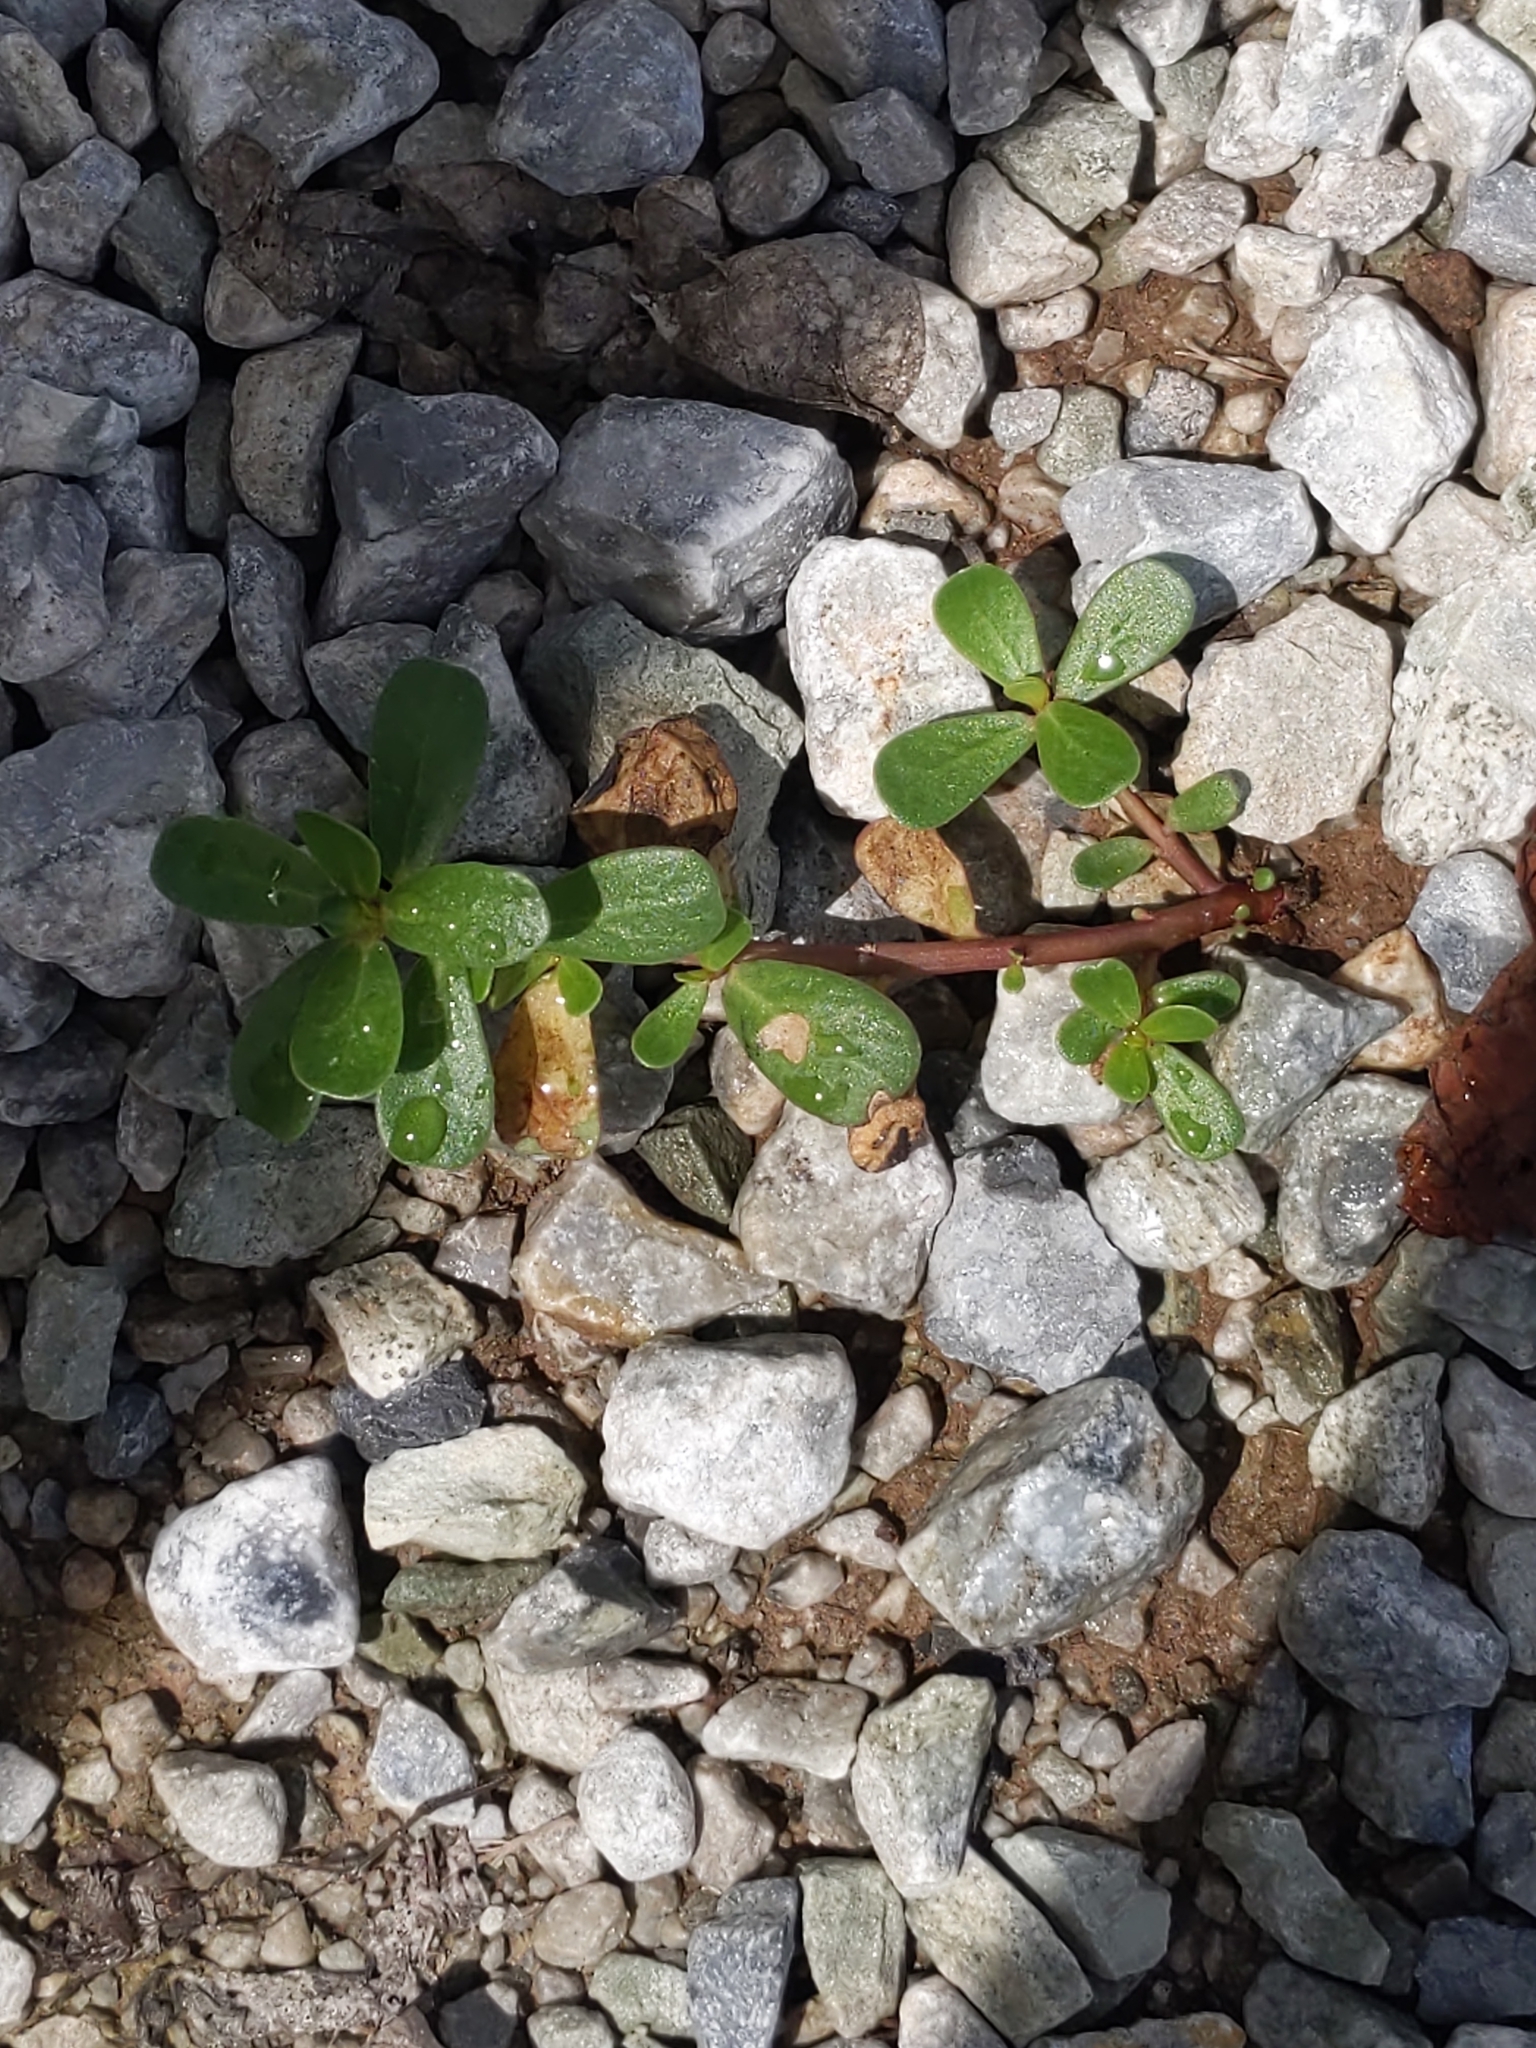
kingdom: Plantae
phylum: Tracheophyta
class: Magnoliopsida
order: Caryophyllales
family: Portulacaceae
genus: Portulaca
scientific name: Portulaca oleracea
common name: Common purslane
